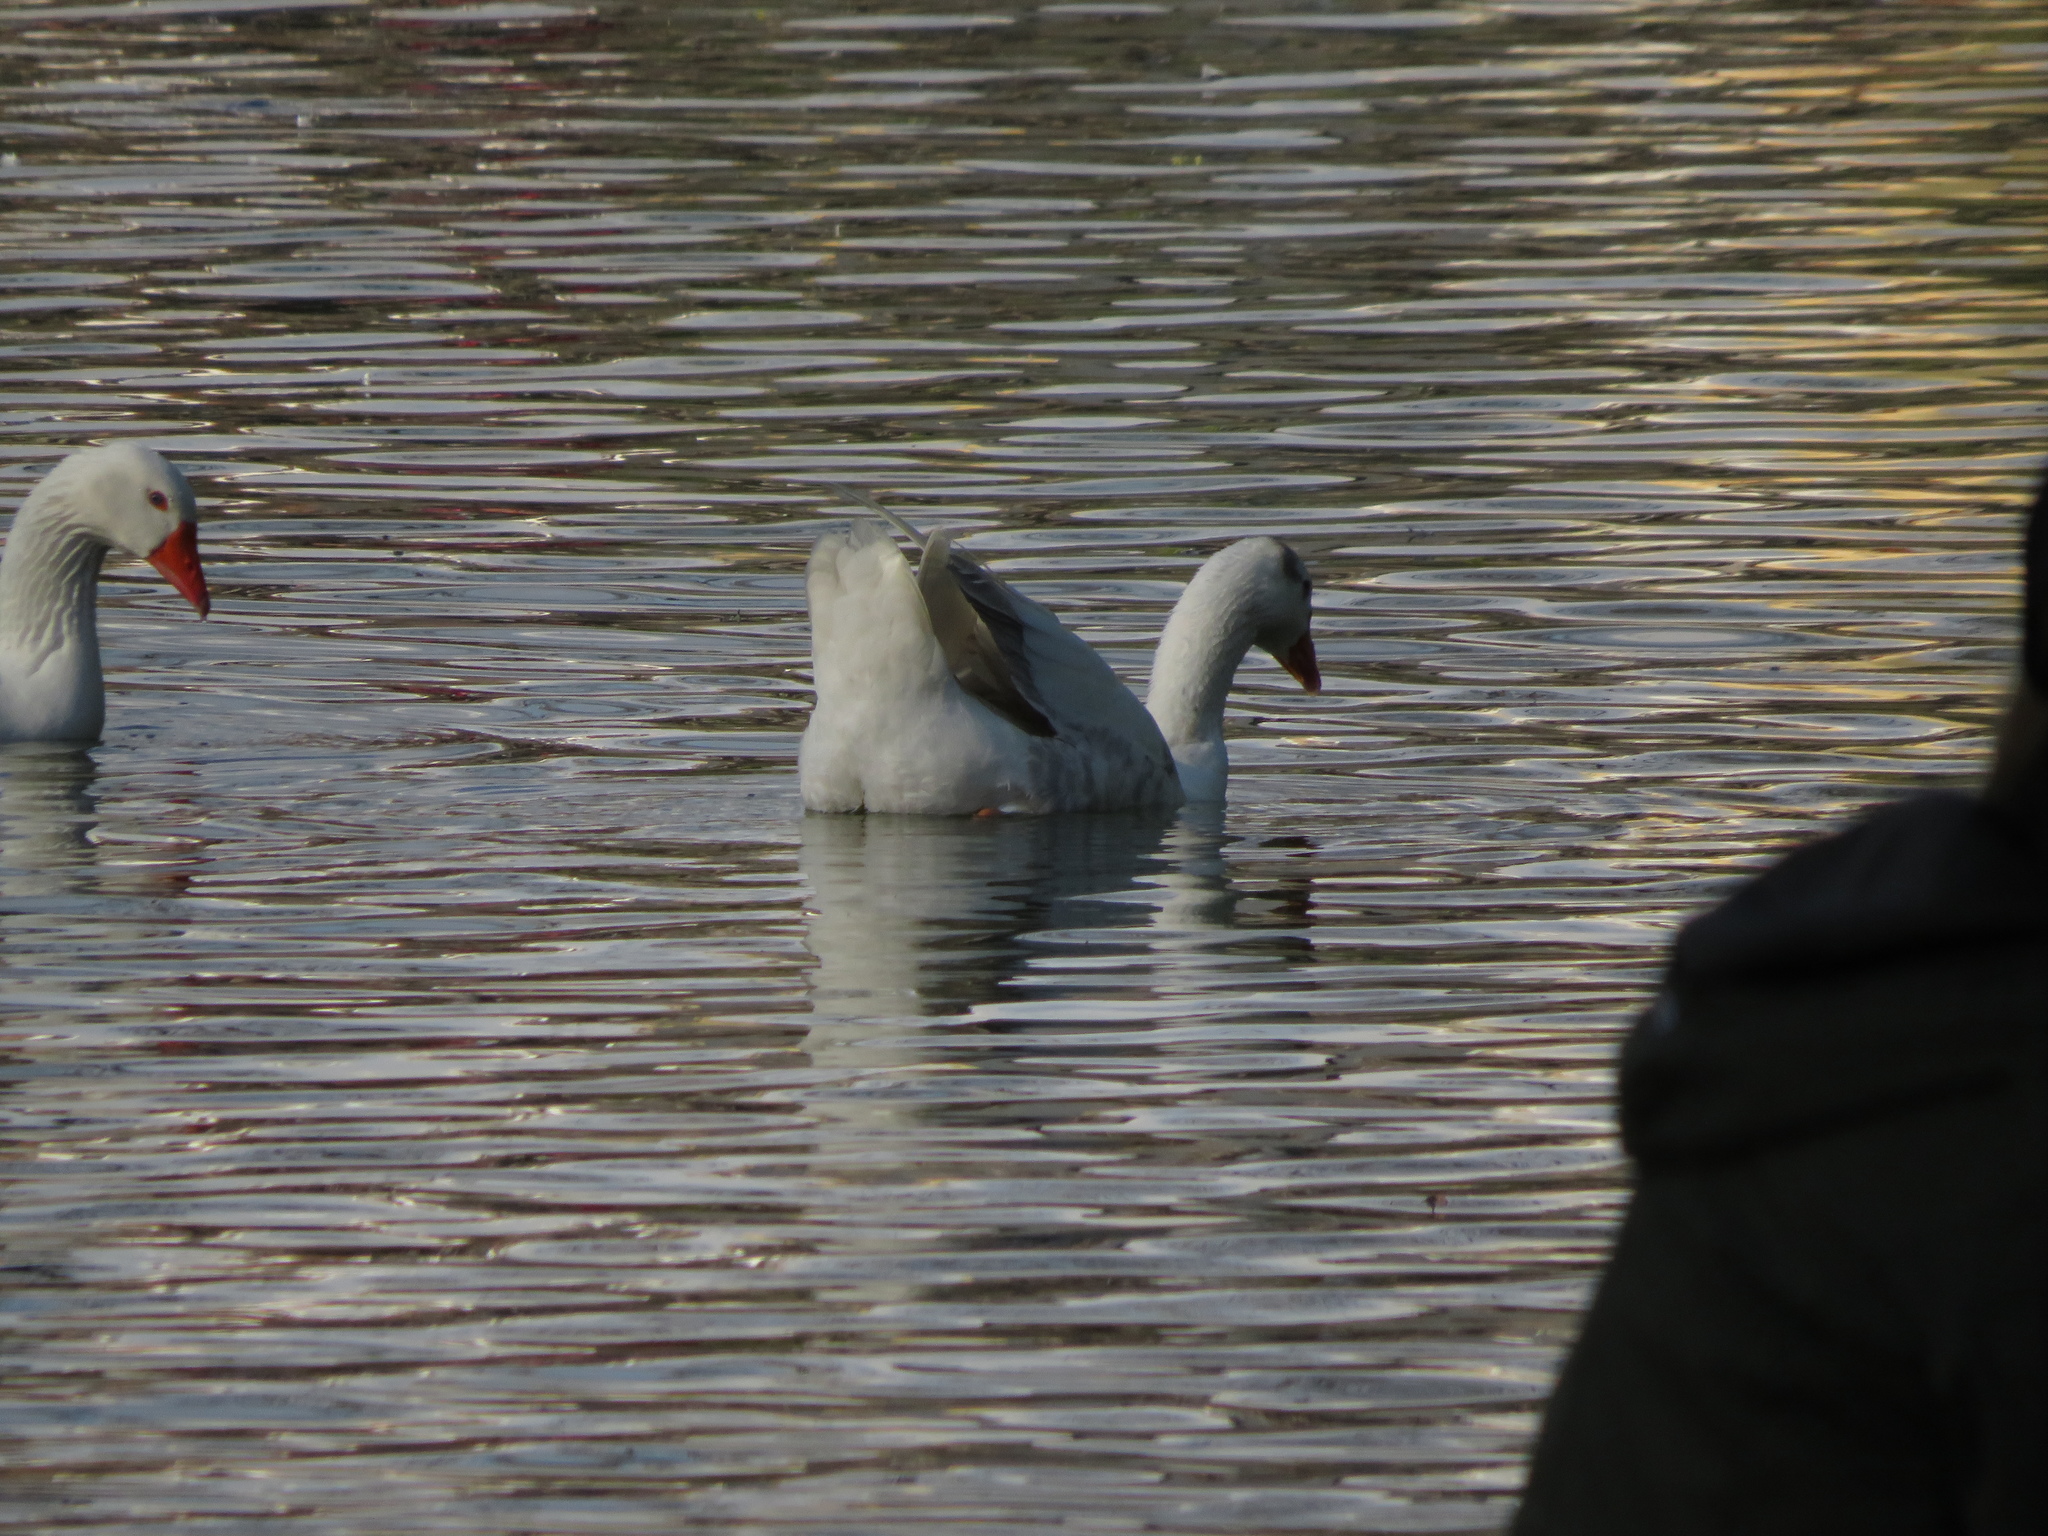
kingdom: Animalia
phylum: Chordata
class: Aves
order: Anseriformes
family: Anatidae
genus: Anser
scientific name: Anser anser
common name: Greylag goose
